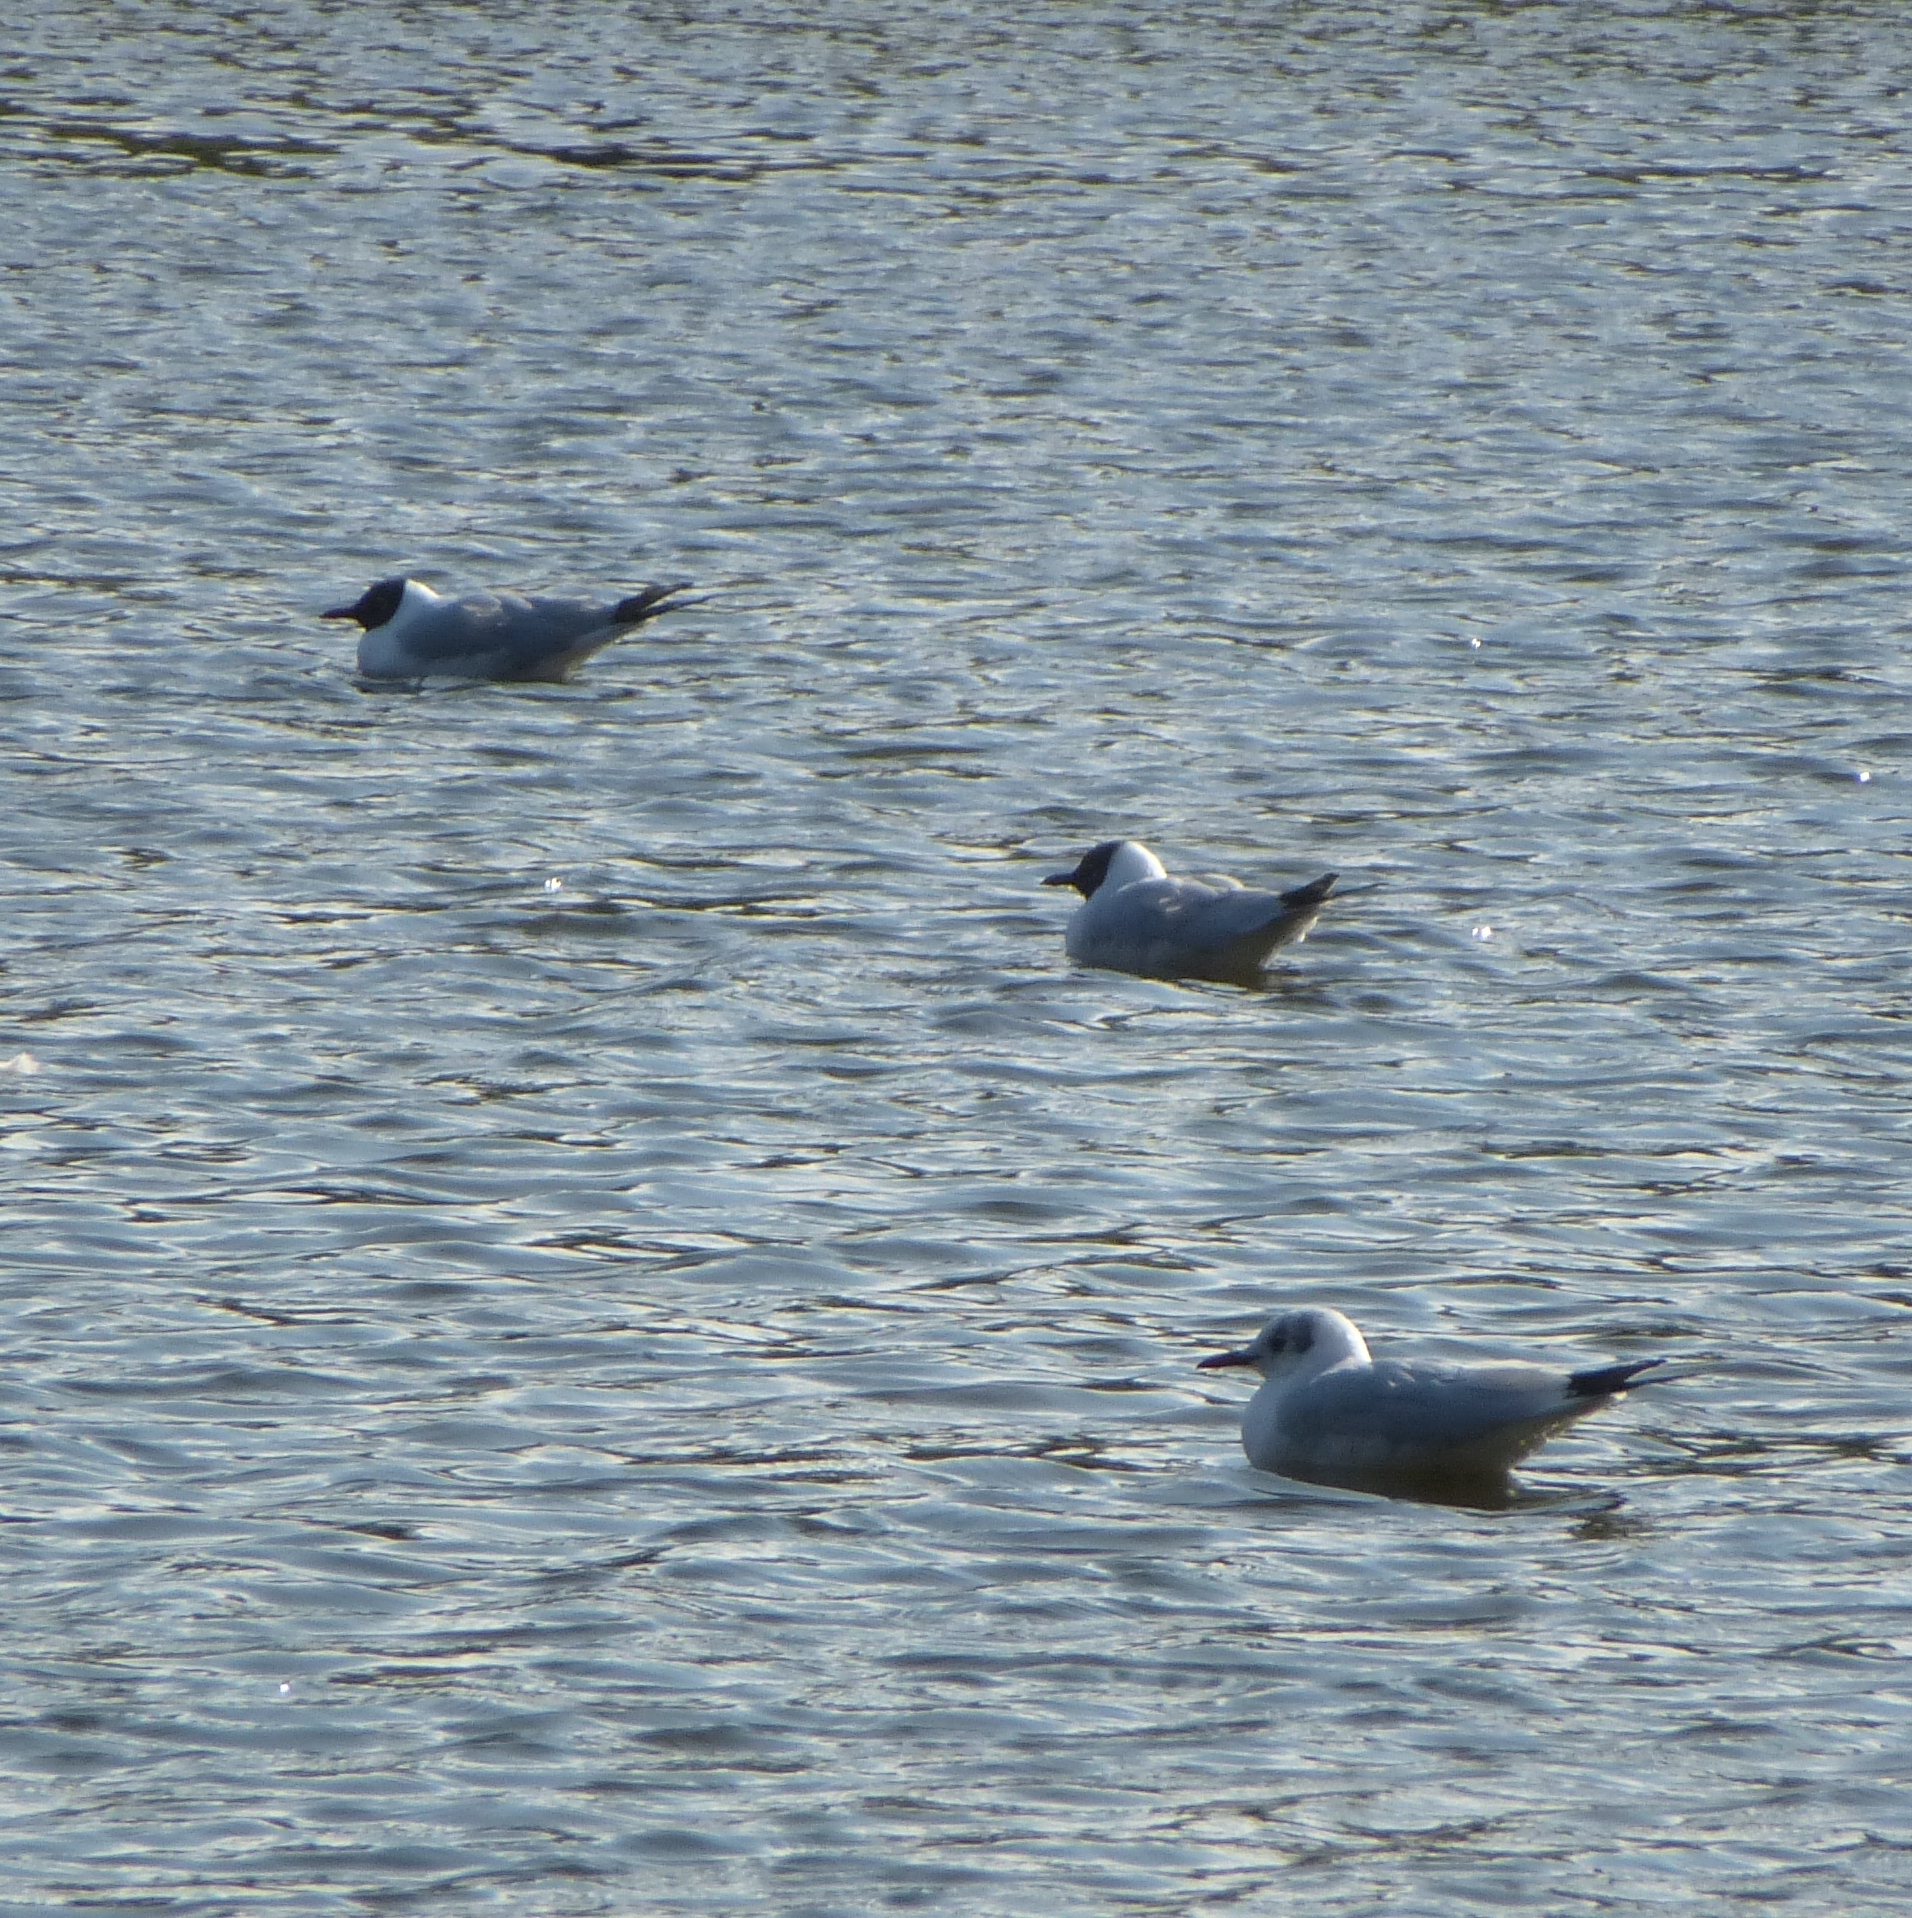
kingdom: Animalia
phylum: Chordata
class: Aves
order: Charadriiformes
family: Laridae
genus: Chroicocephalus
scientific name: Chroicocephalus ridibundus
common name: Black-headed gull
